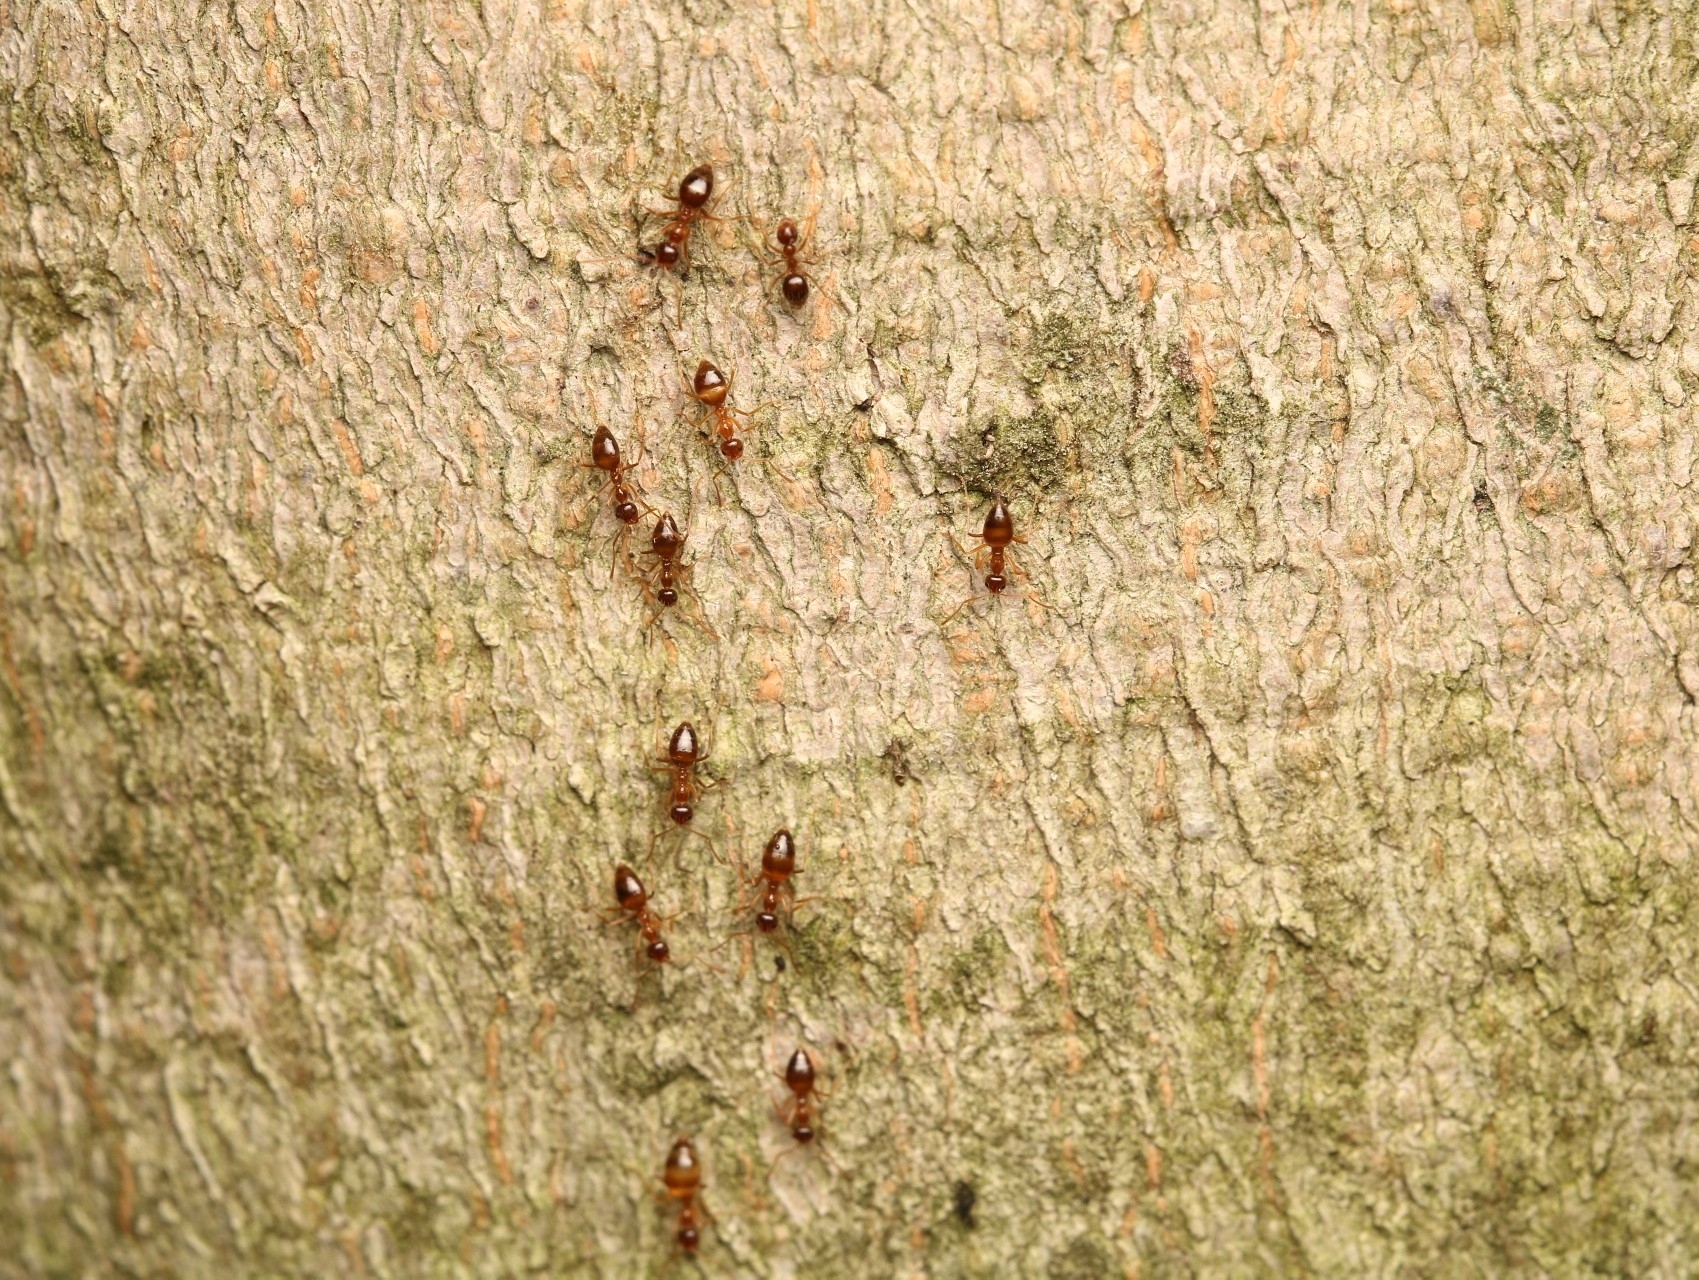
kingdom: Animalia
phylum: Arthropoda
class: Insecta
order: Hymenoptera
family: Formicidae
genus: Prenolepis
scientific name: Prenolepis imparis
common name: Small honey ant
